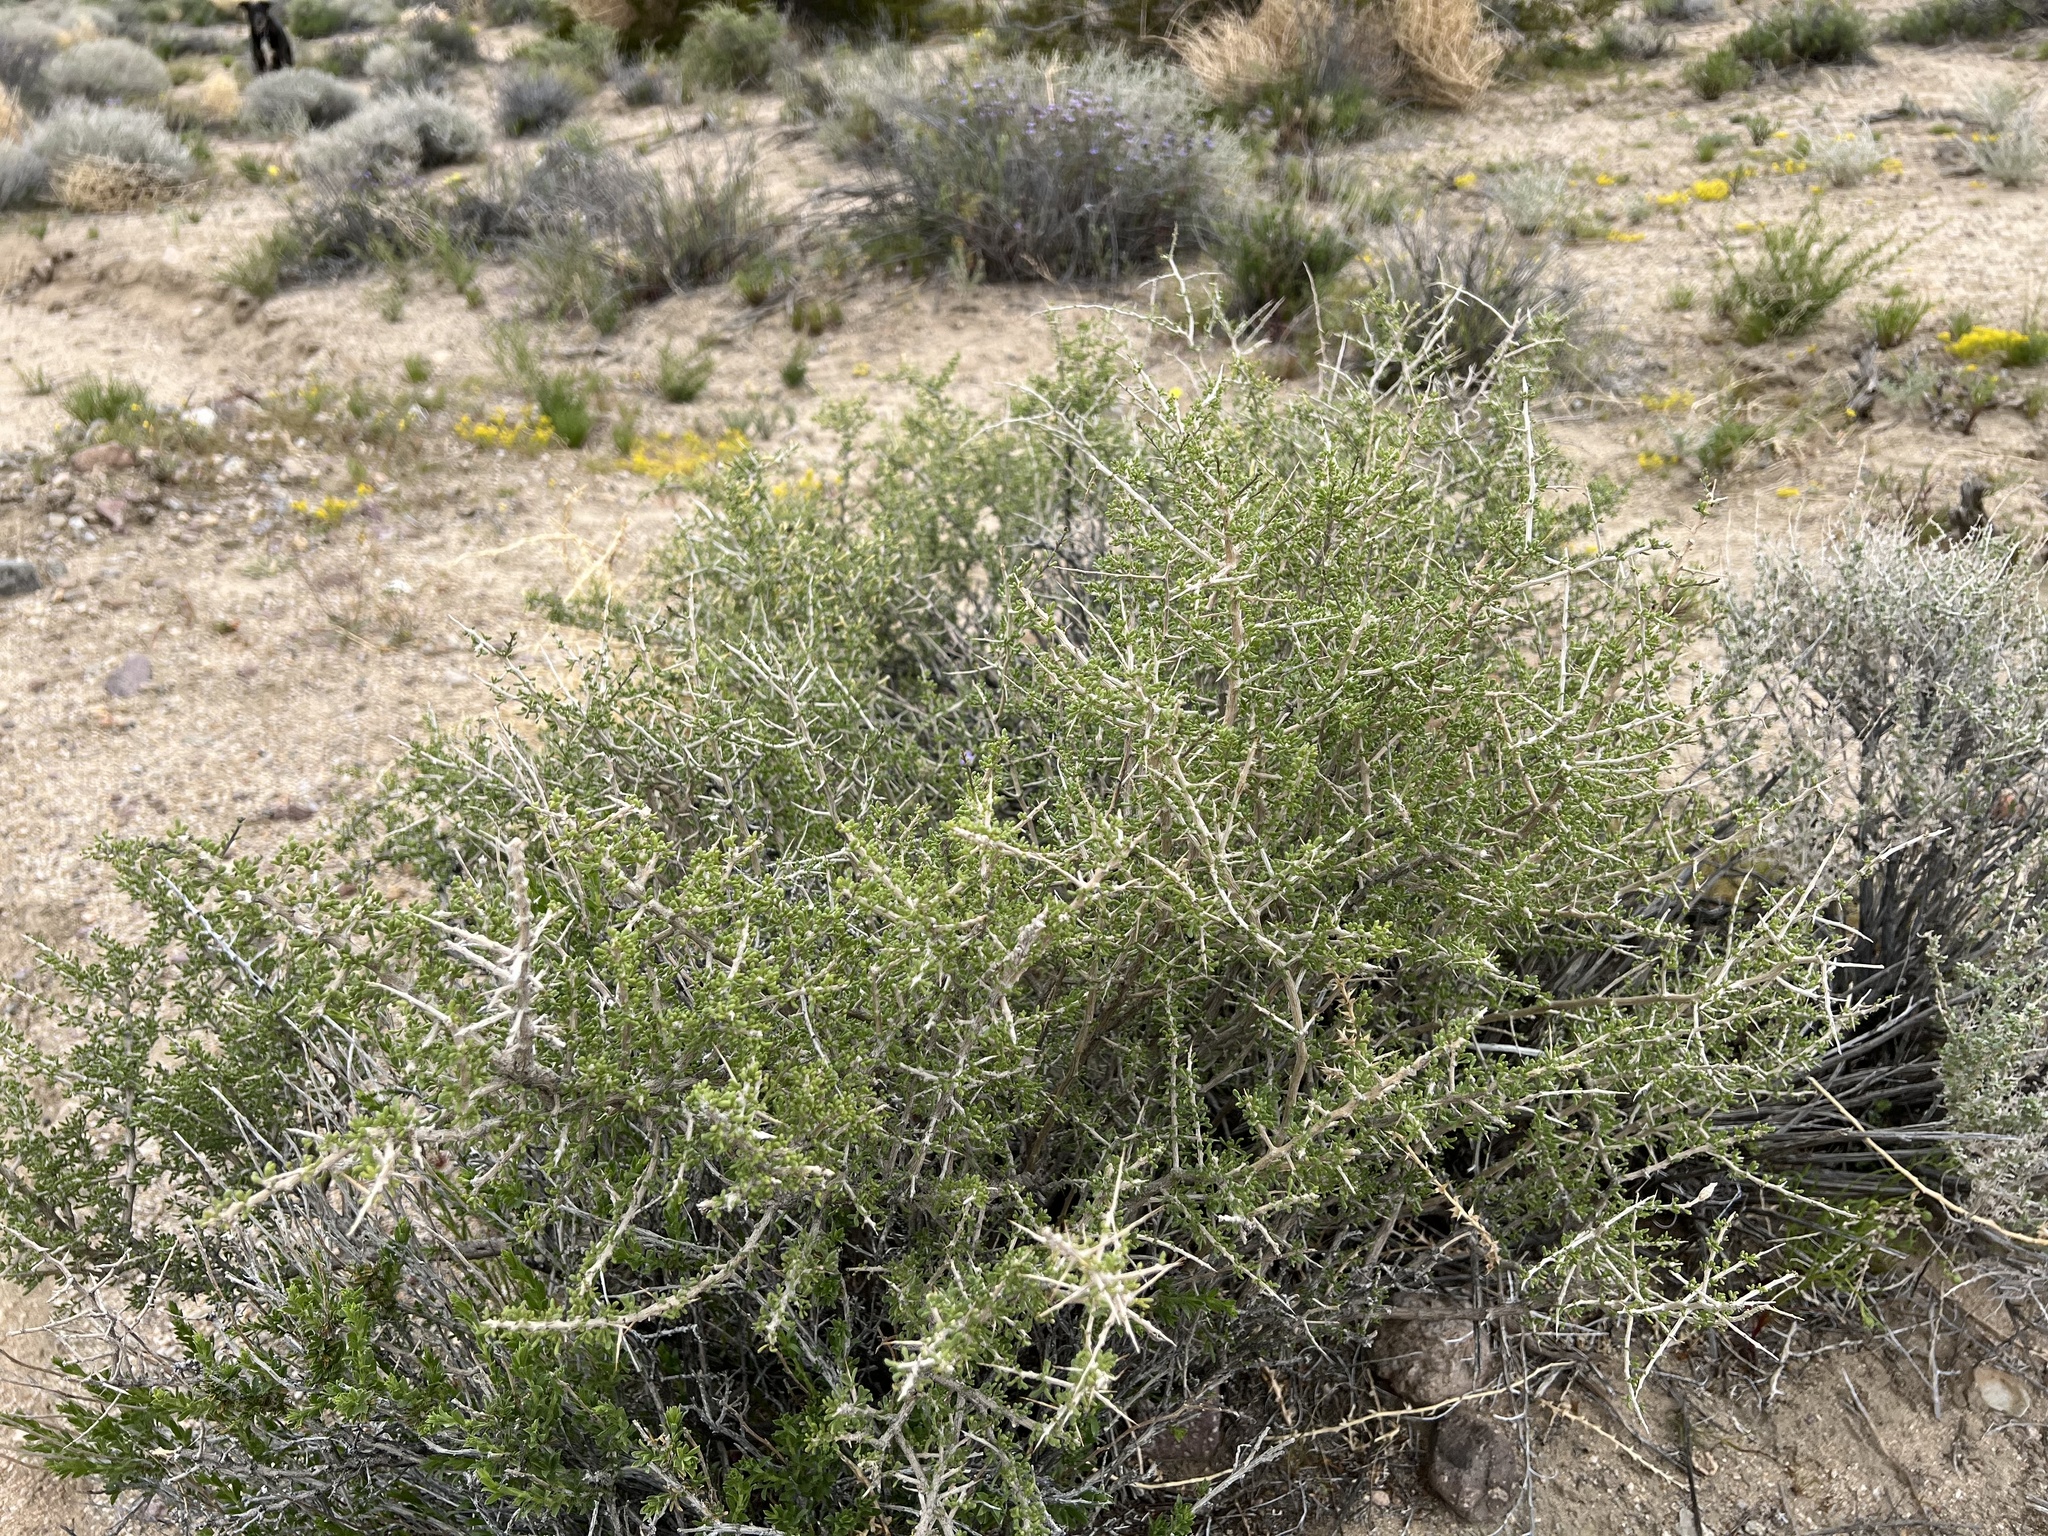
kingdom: Plantae
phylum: Tracheophyta
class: Magnoliopsida
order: Solanales
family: Solanaceae
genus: Lycium
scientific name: Lycium andersonii
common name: Water-jacket
